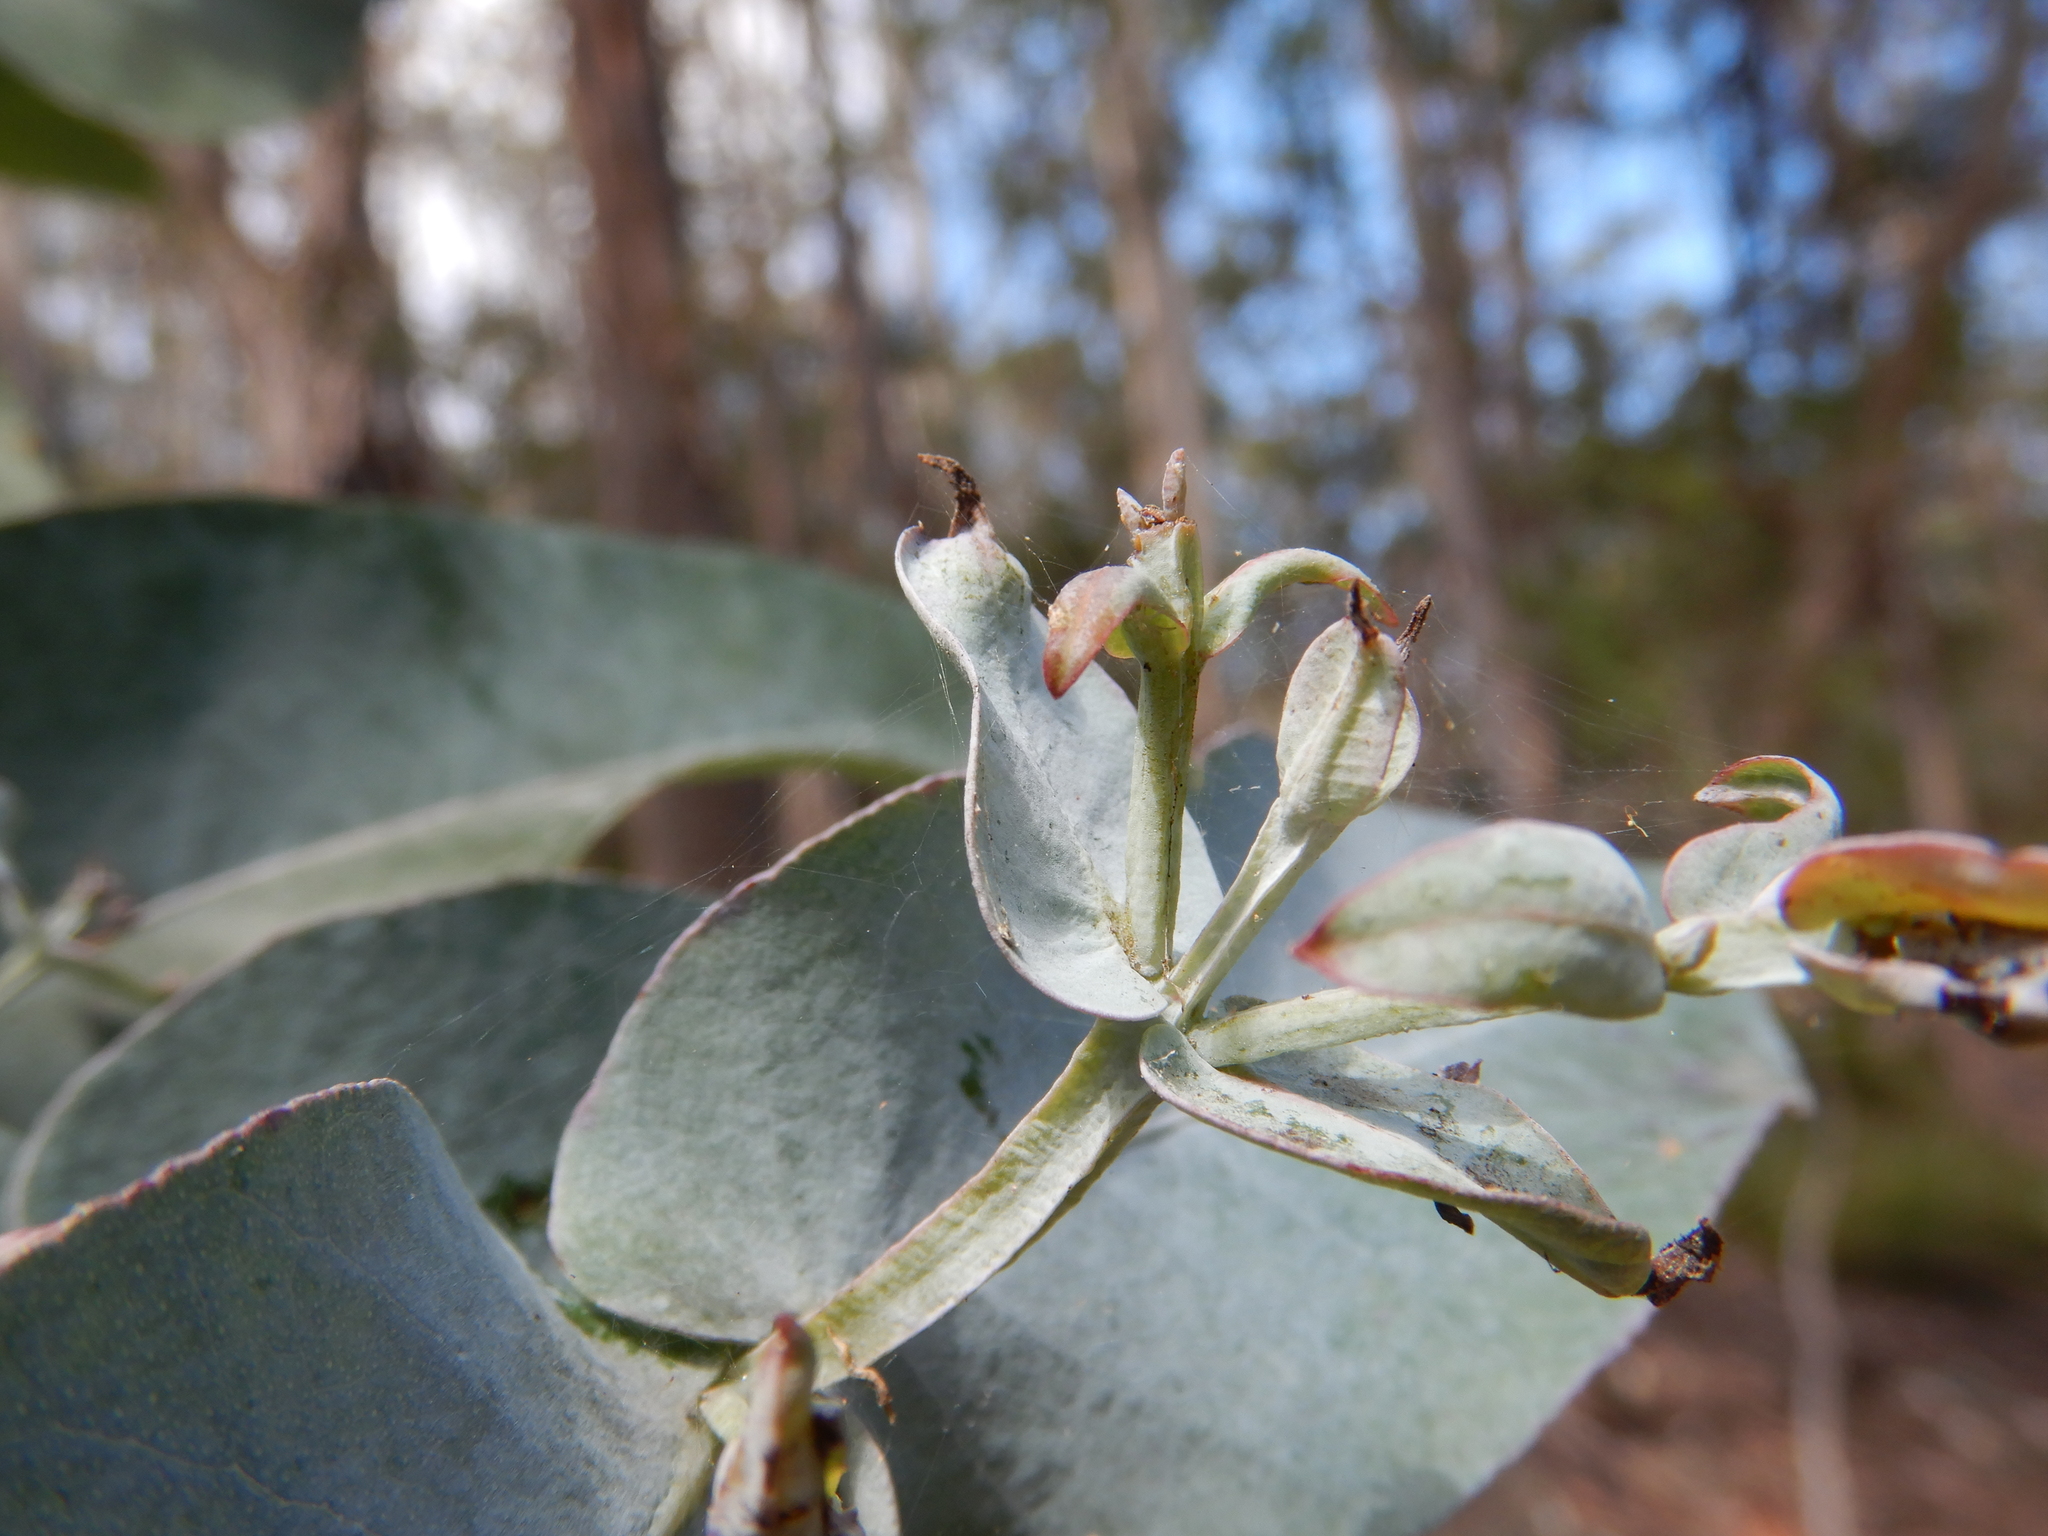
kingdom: Plantae
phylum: Tracheophyta
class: Magnoliopsida
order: Myrtales
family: Myrtaceae
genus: Eucalyptus
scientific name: Eucalyptus globulus
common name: Southern blue-gum
